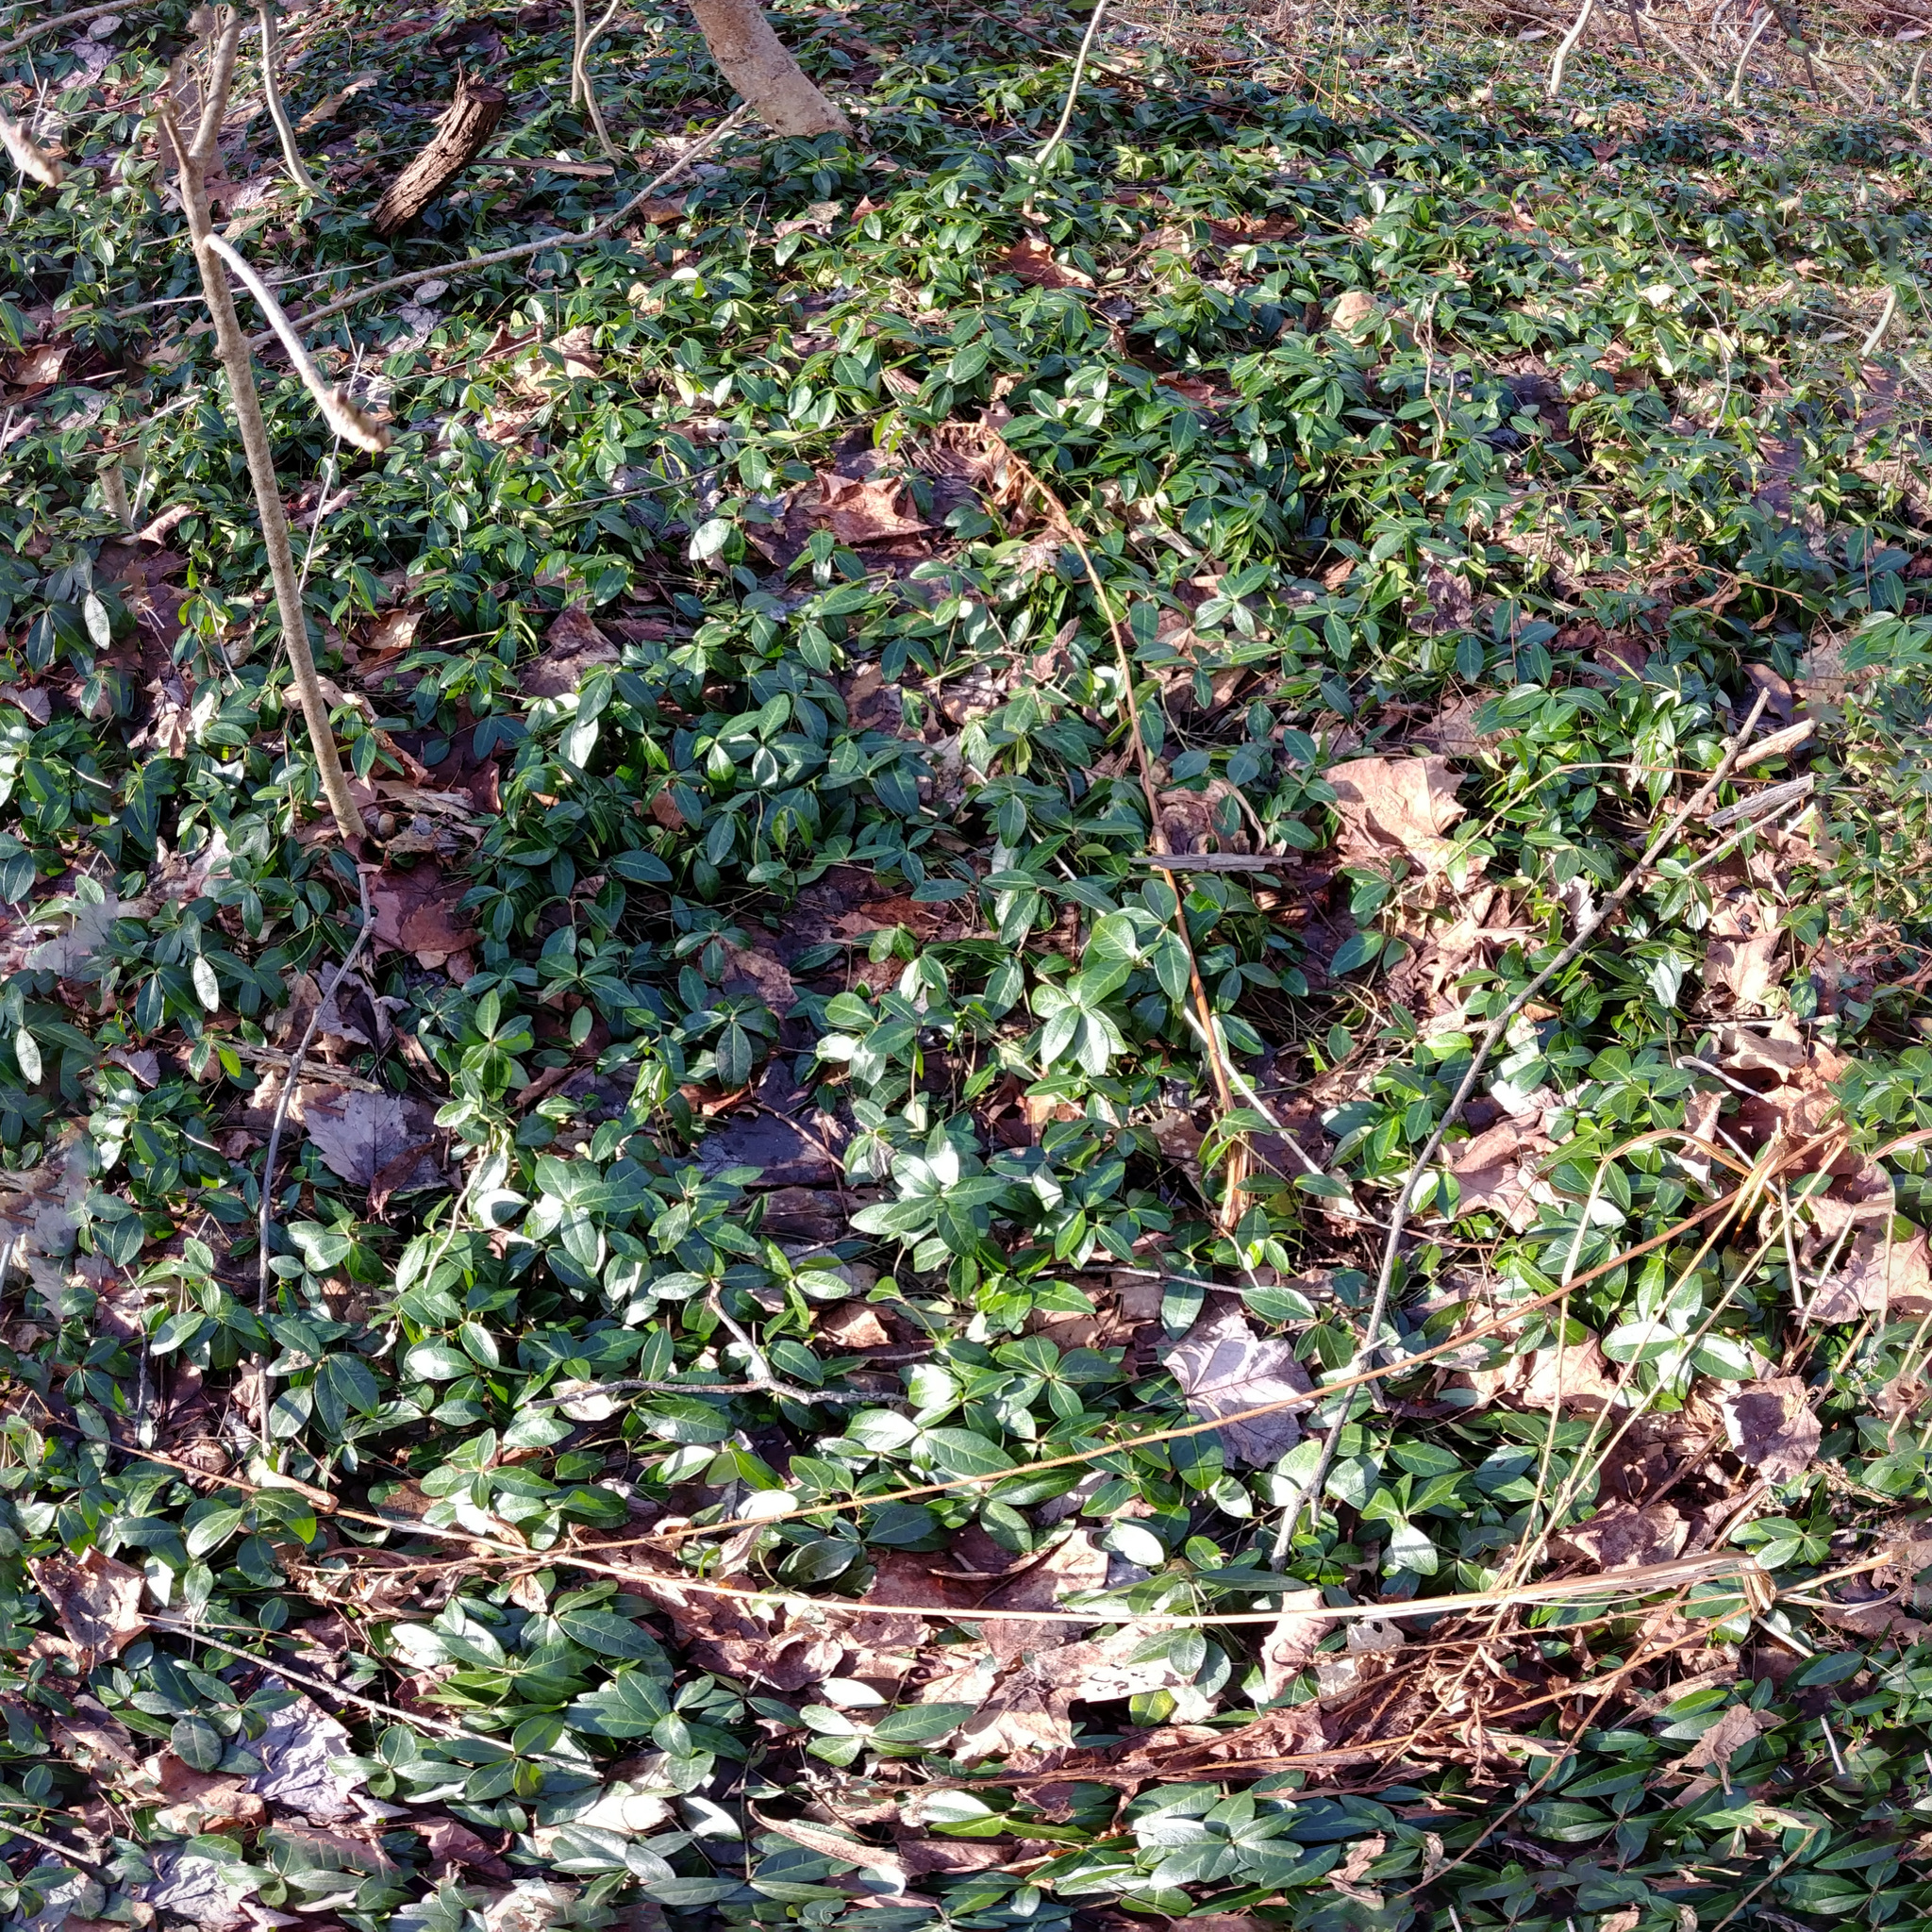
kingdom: Plantae
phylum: Tracheophyta
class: Magnoliopsida
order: Gentianales
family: Apocynaceae
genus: Vinca
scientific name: Vinca minor
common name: Lesser periwinkle
